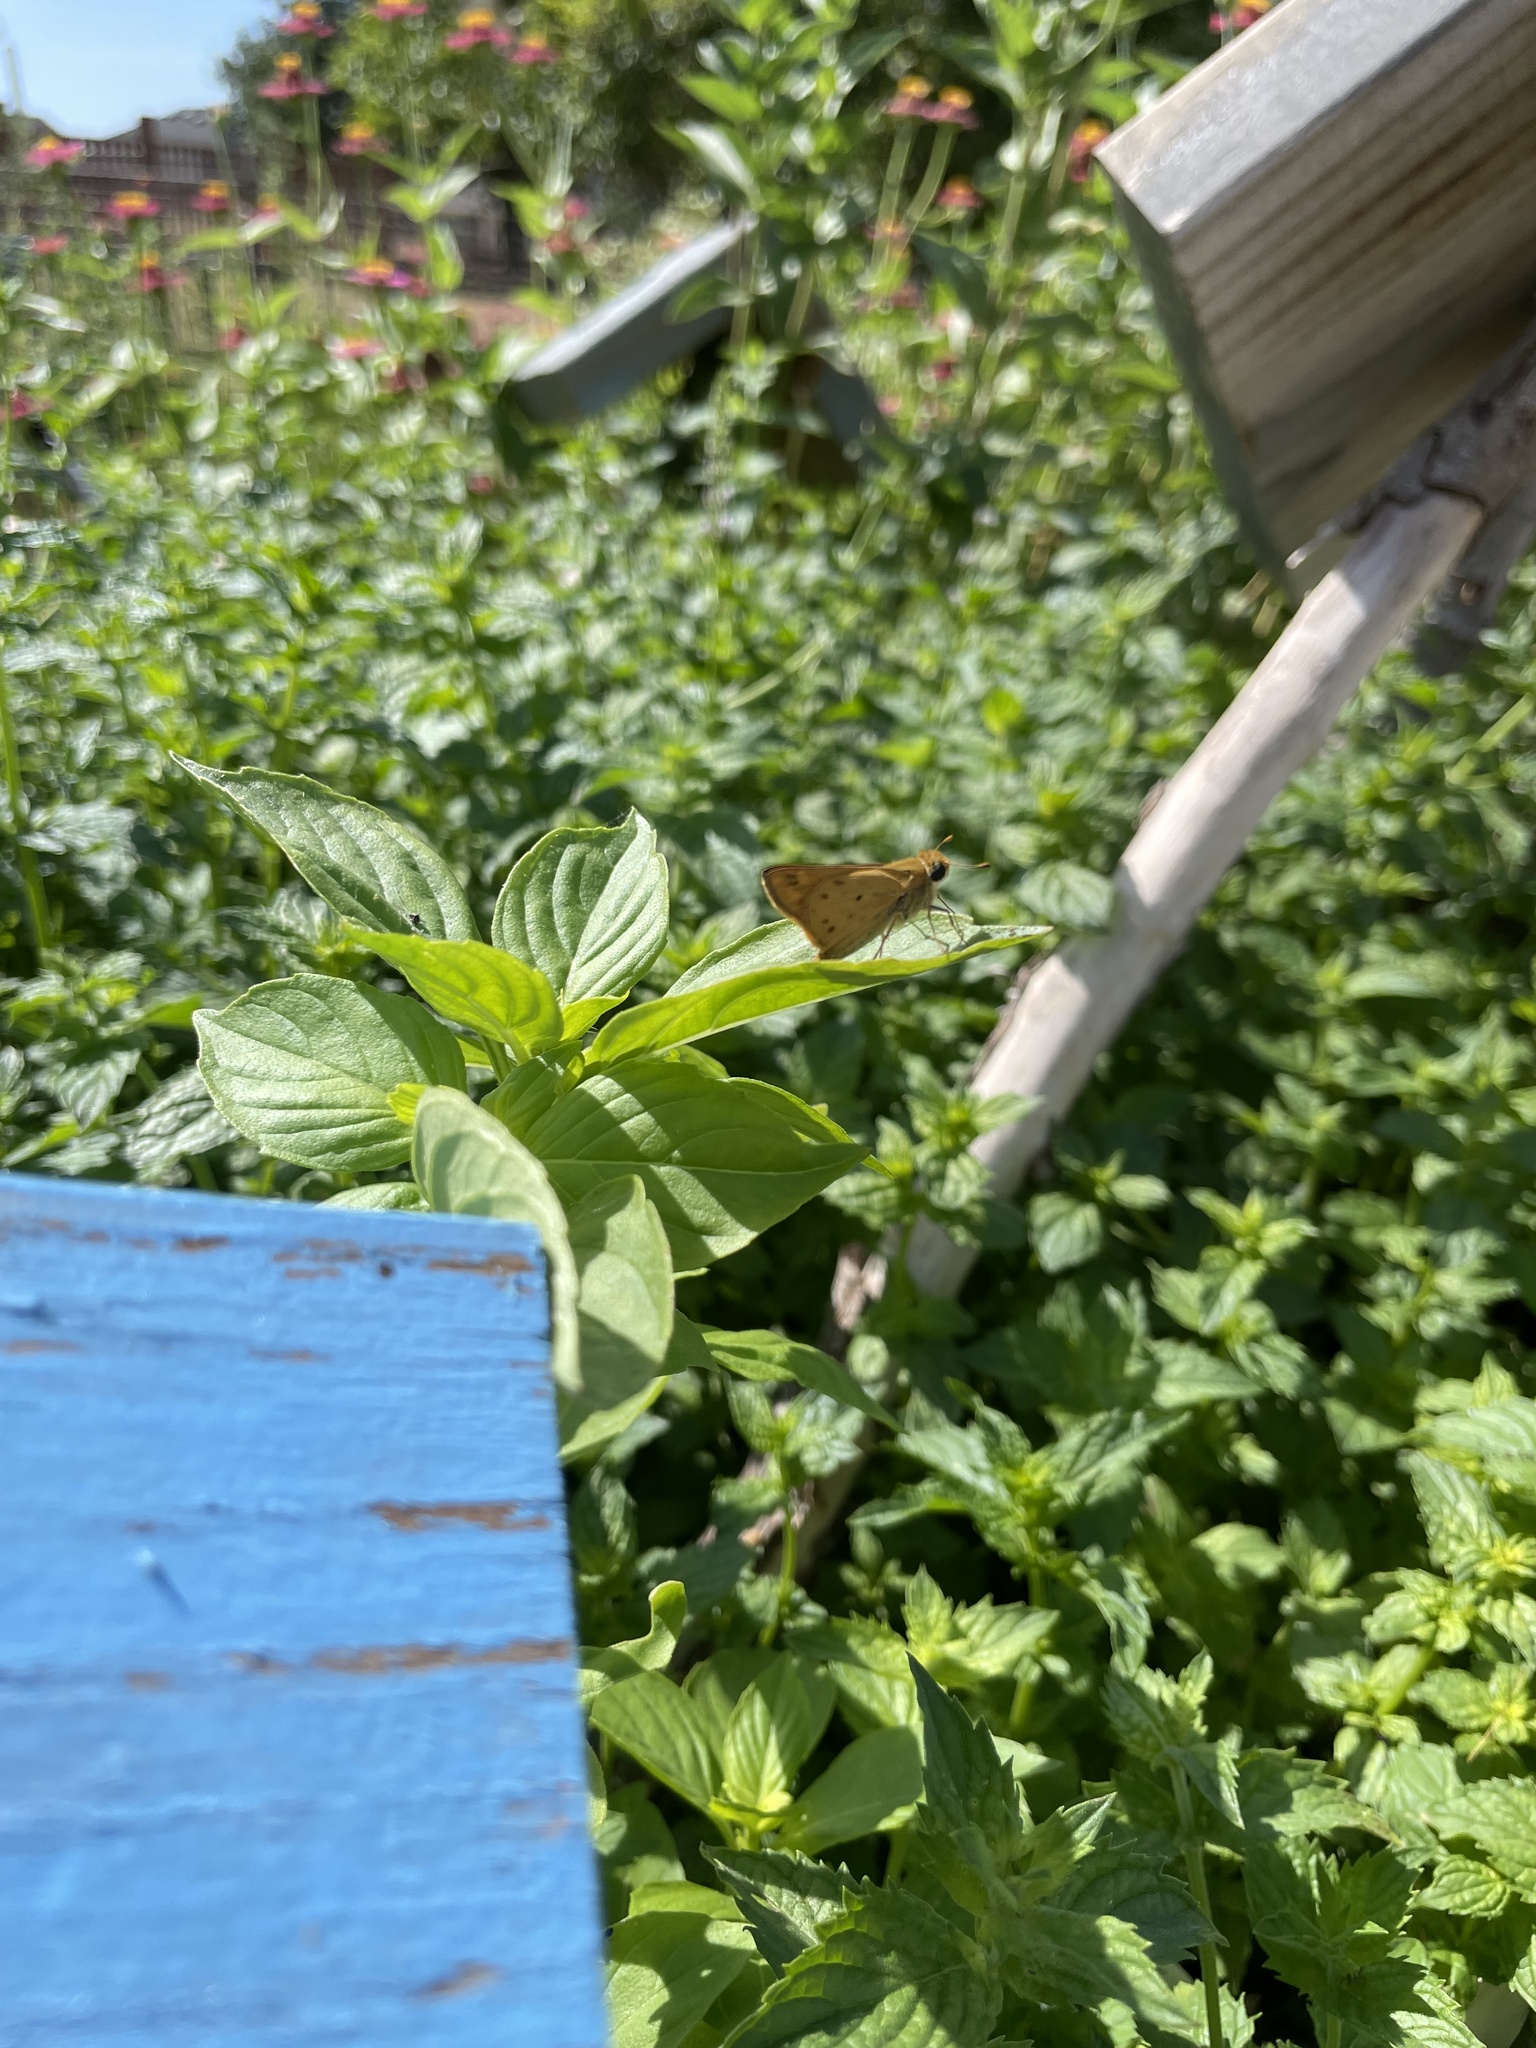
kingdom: Animalia
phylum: Arthropoda
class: Insecta
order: Lepidoptera
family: Hesperiidae
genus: Hylephila
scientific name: Hylephila phyleus
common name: Fiery skipper
